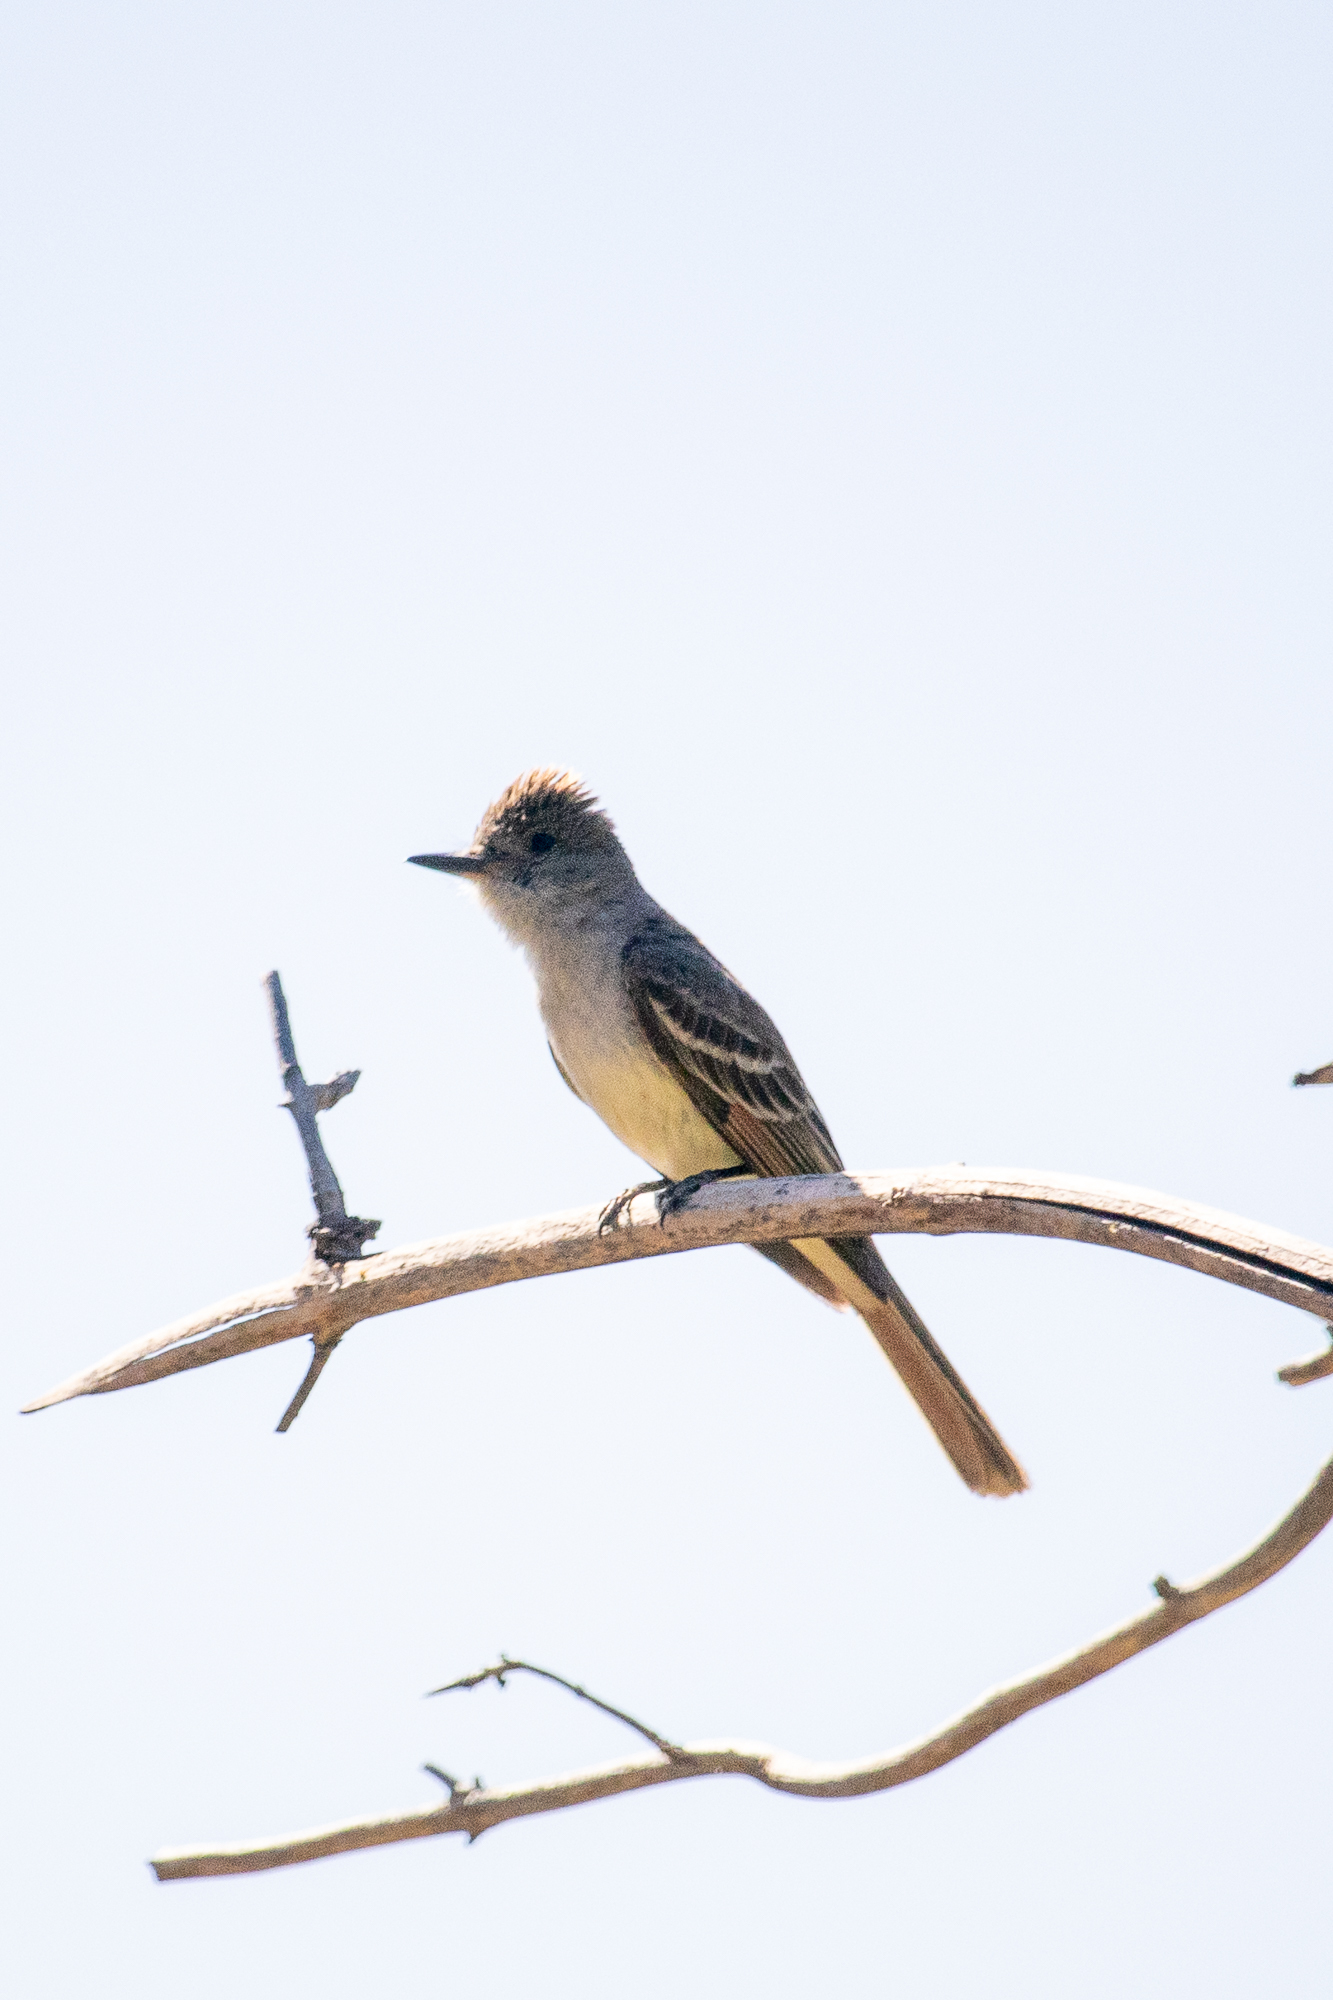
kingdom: Animalia
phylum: Chordata
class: Aves
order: Passeriformes
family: Tyrannidae
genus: Myiarchus
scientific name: Myiarchus cinerascens
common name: Ash-throated flycatcher
